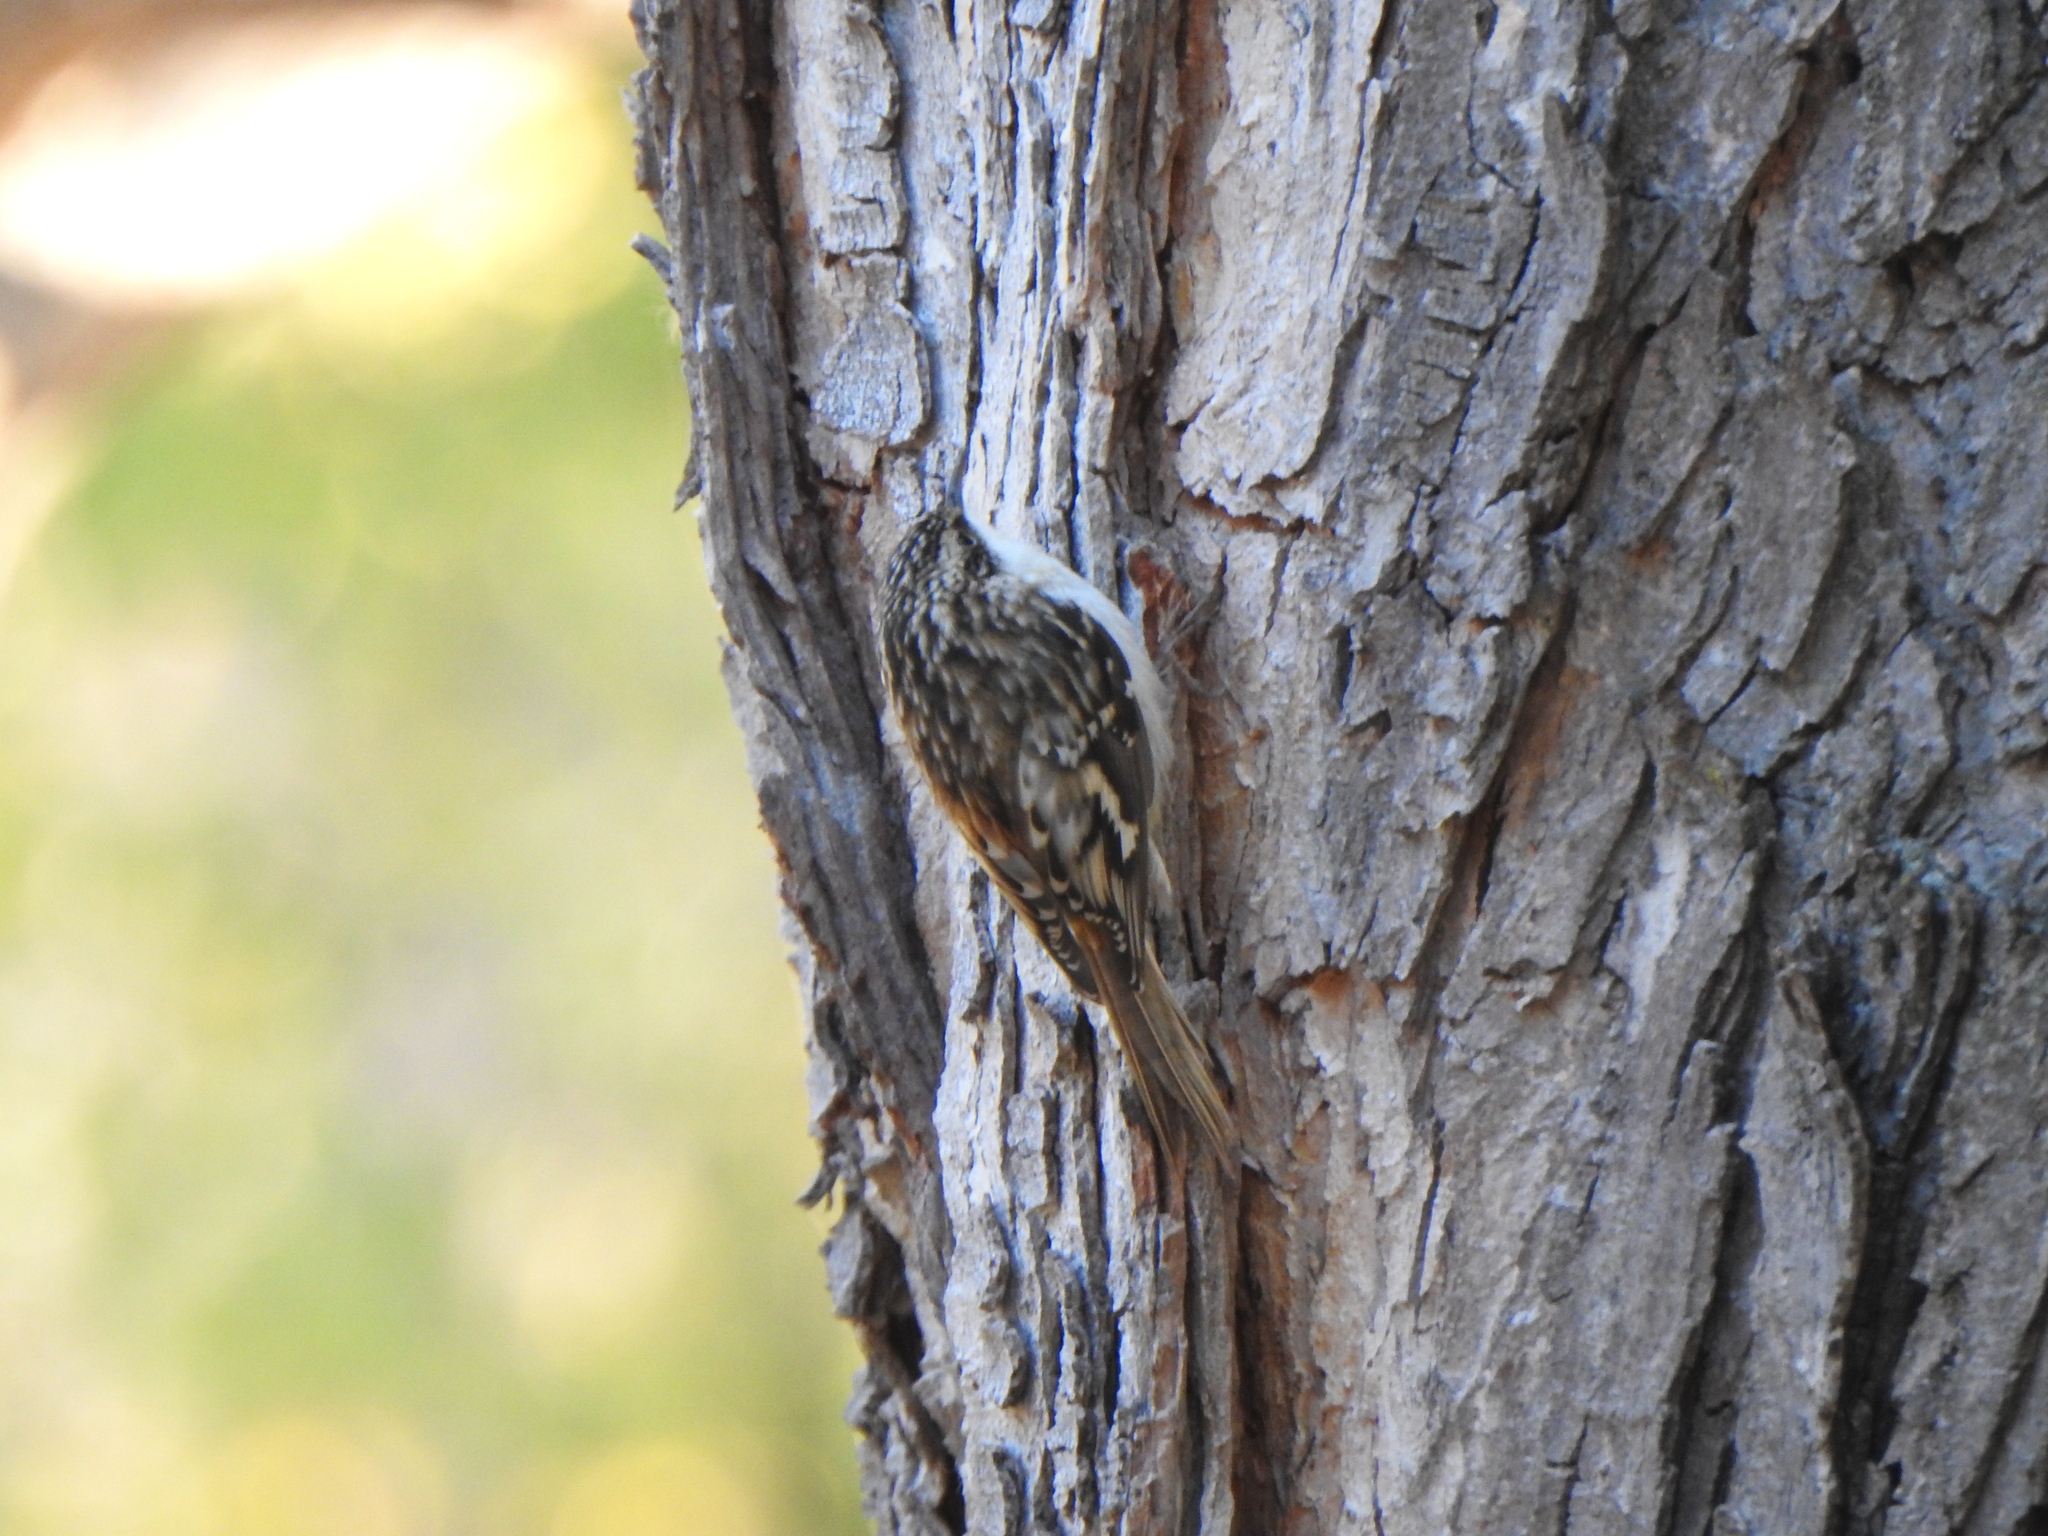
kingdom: Animalia
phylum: Chordata
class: Aves
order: Passeriformes
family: Certhiidae
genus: Certhia
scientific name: Certhia americana
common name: Brown creeper
